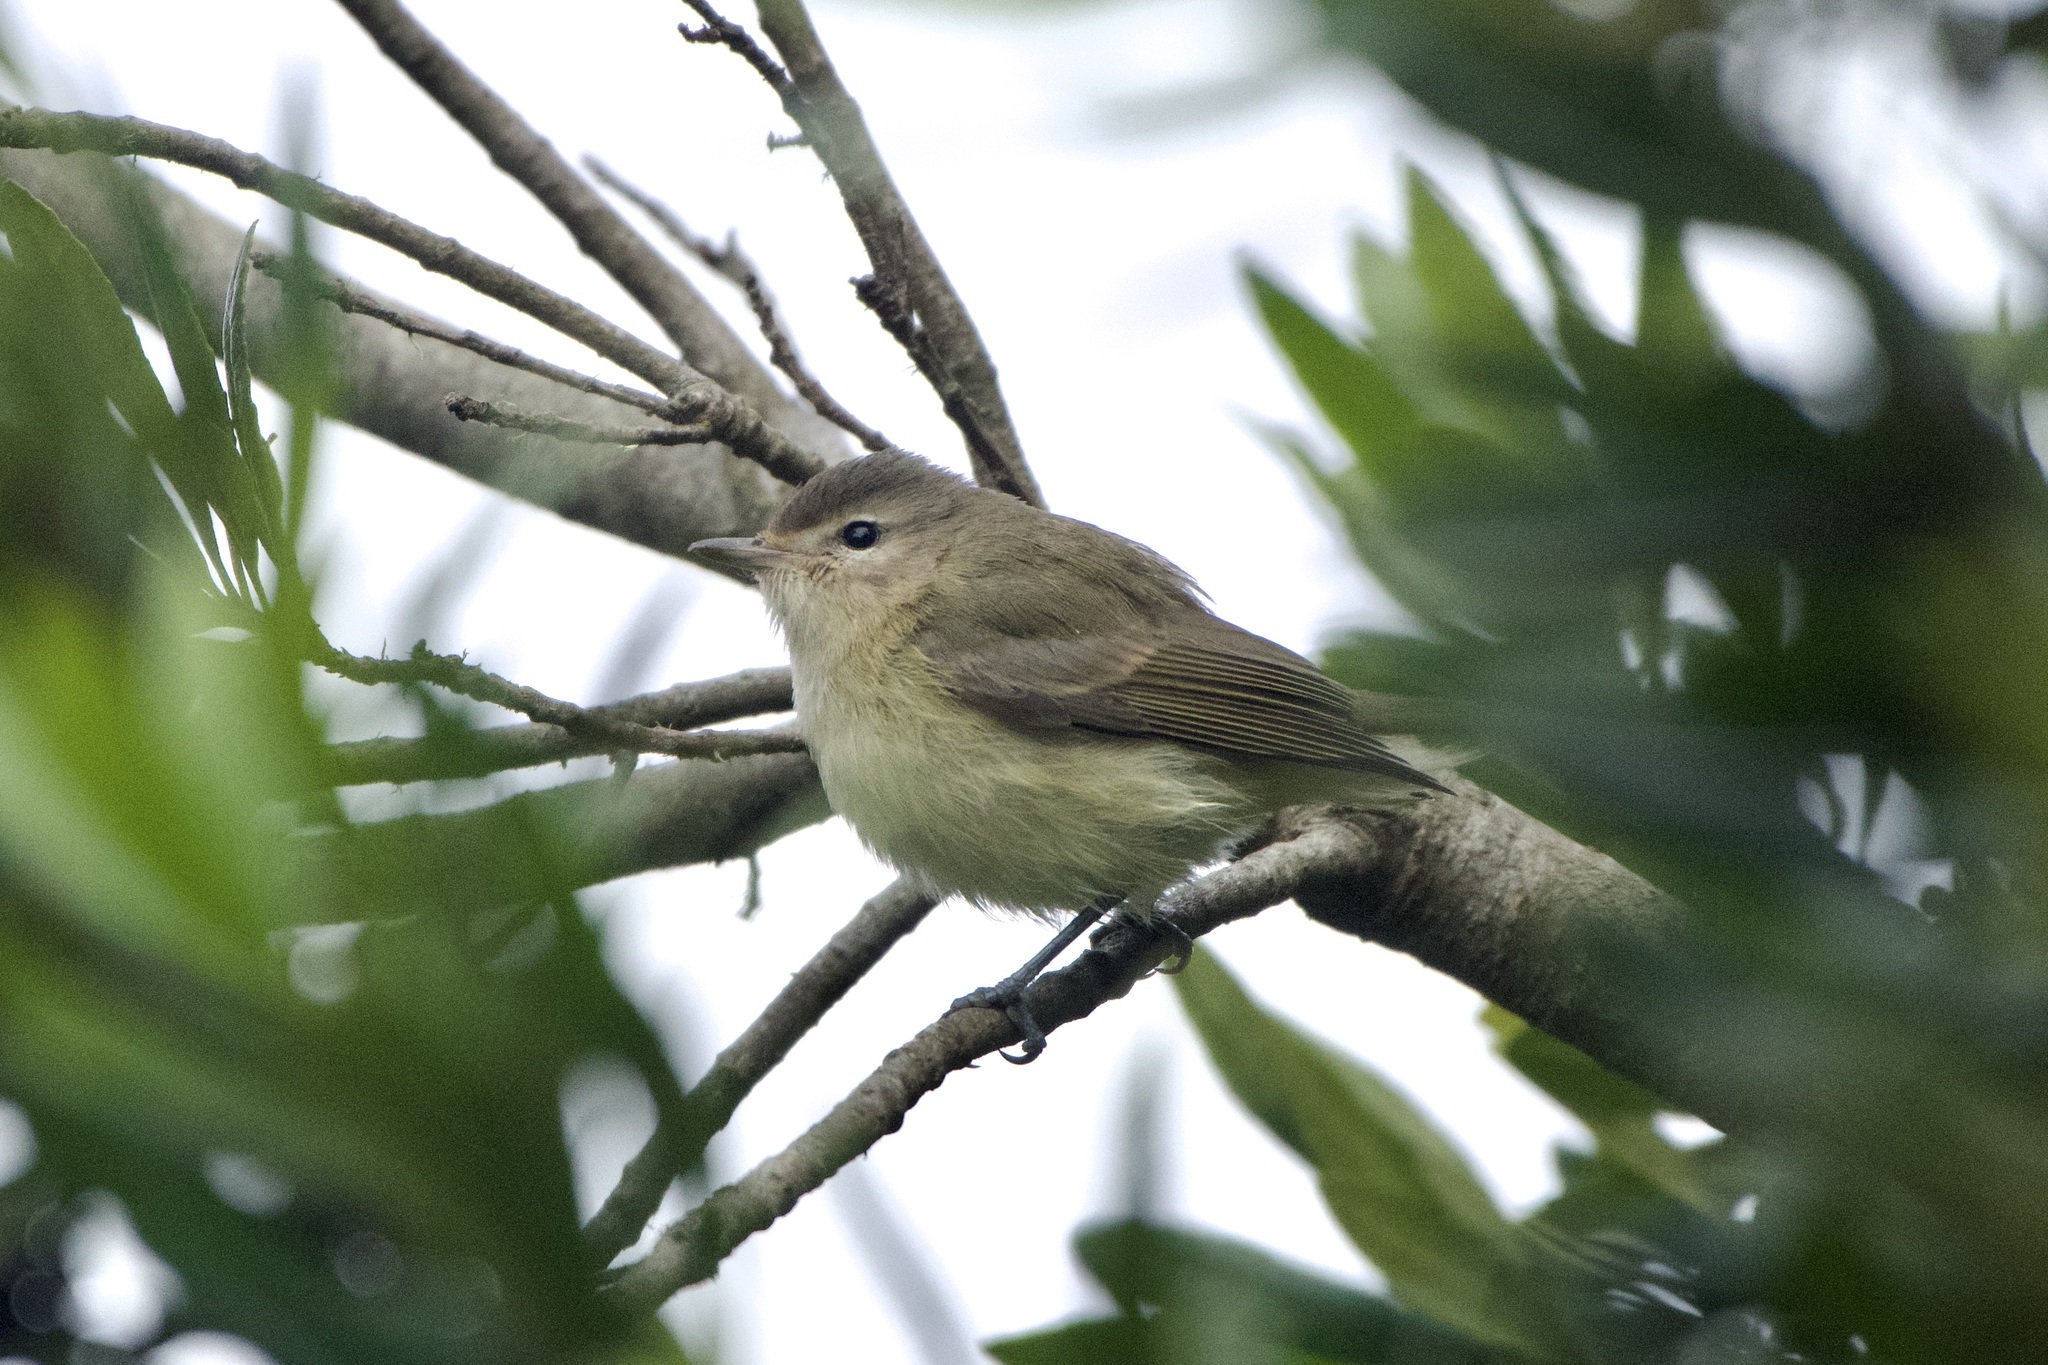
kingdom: Animalia
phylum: Chordata
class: Aves
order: Passeriformes
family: Vireonidae
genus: Vireo
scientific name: Vireo gilvus
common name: Warbling vireo
